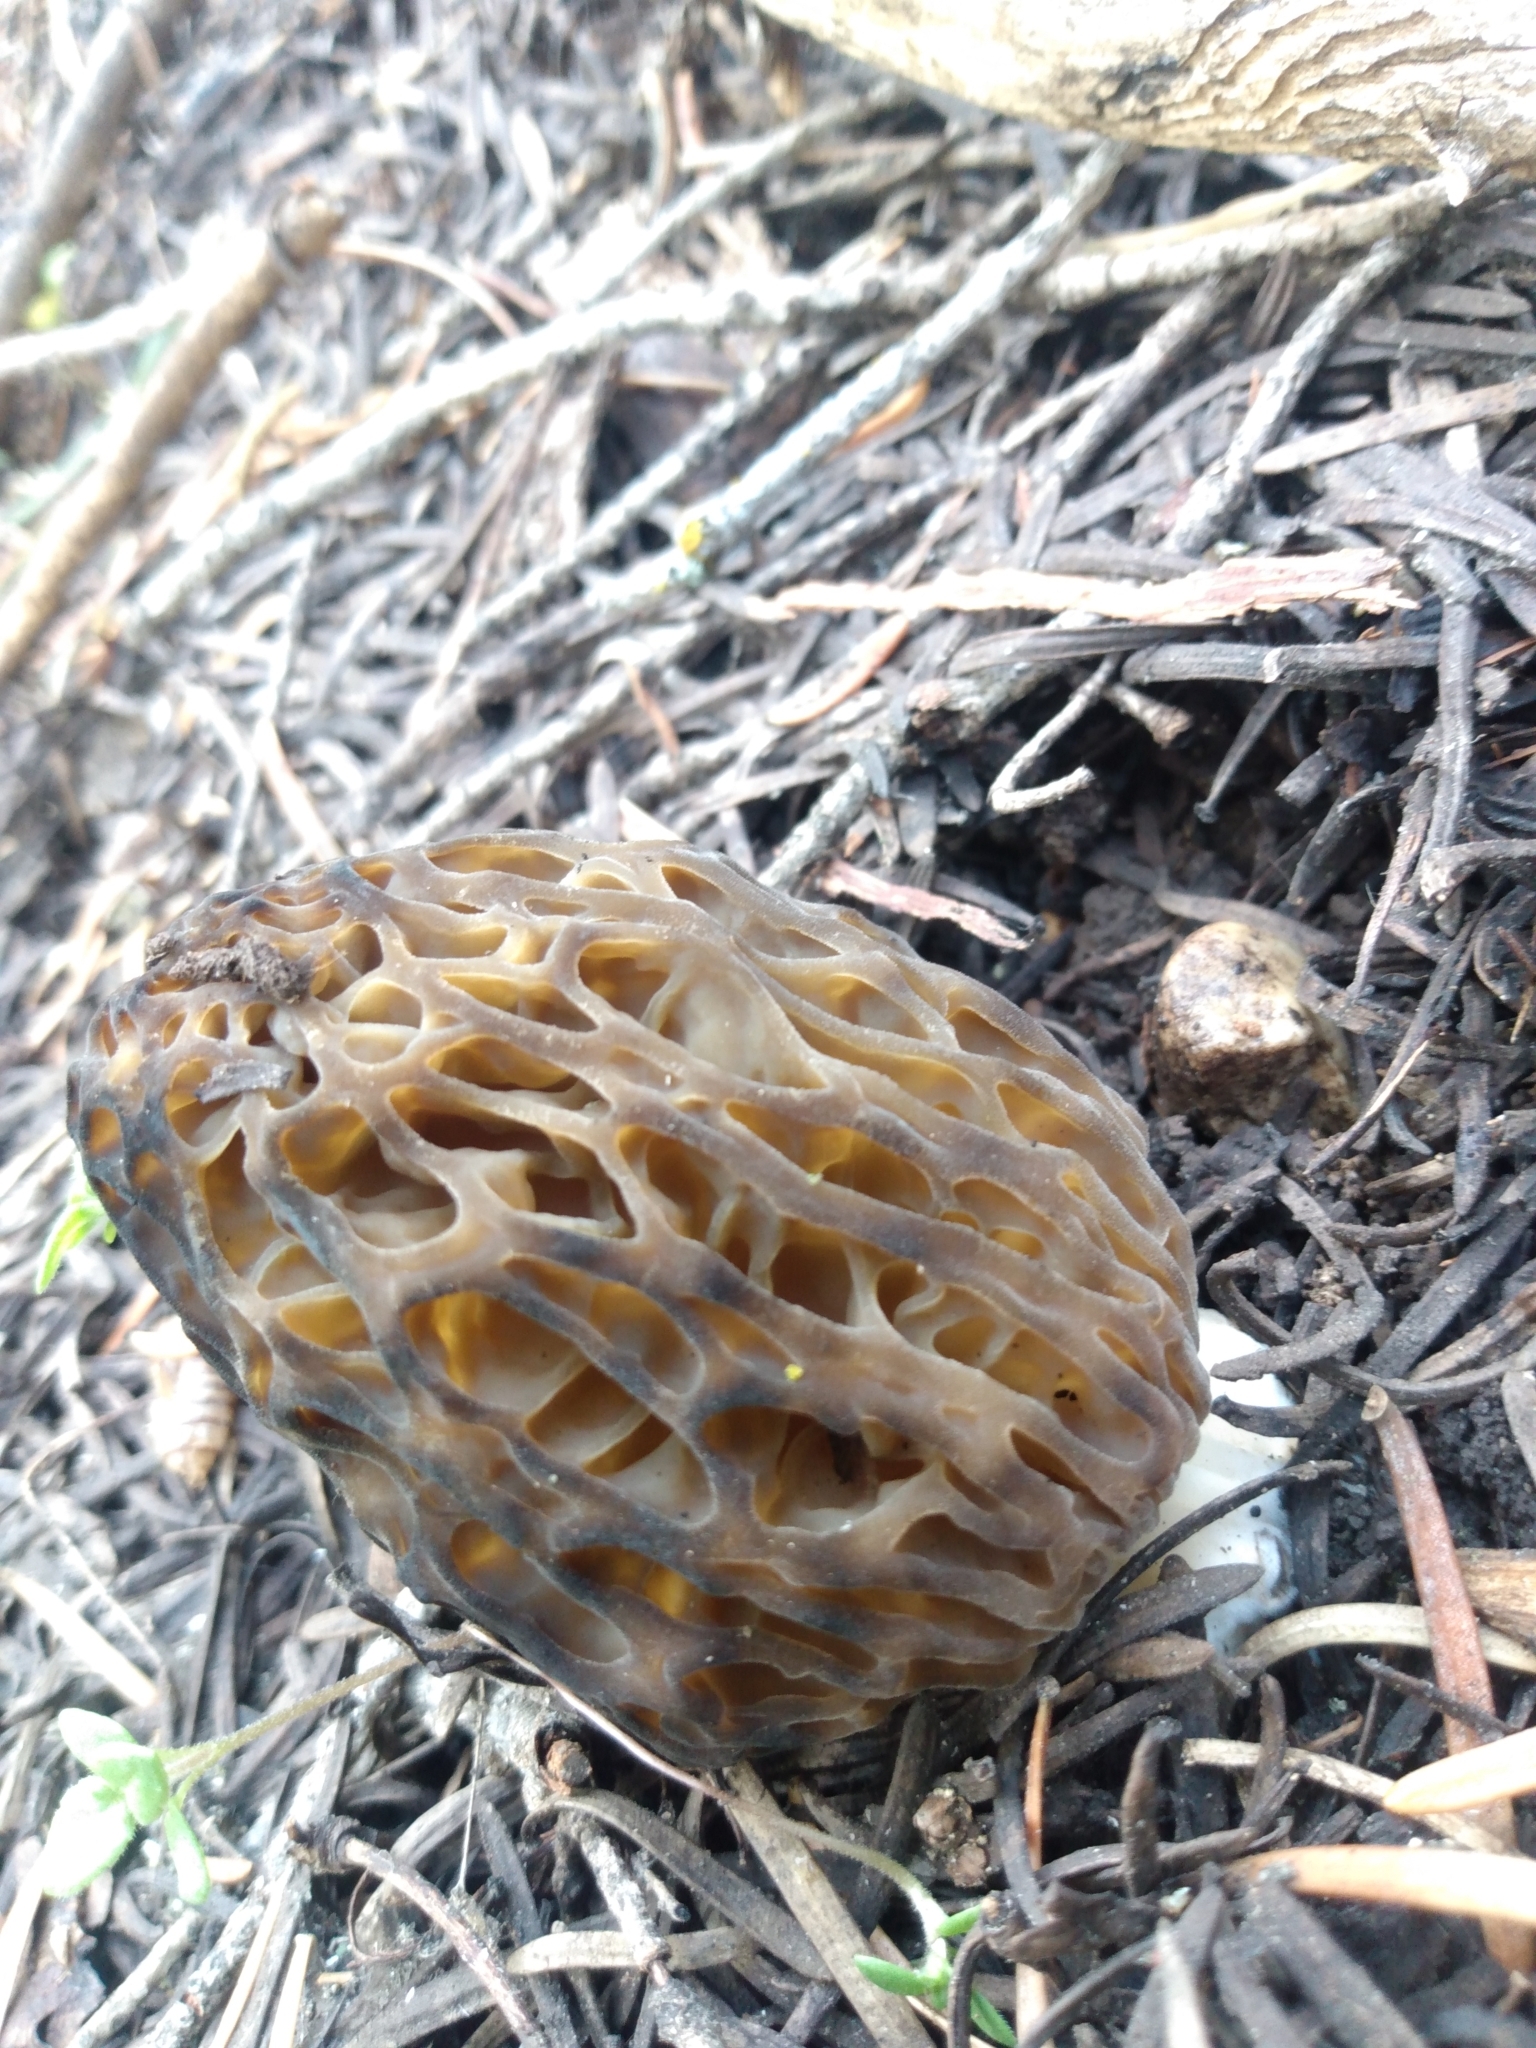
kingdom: Fungi
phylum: Ascomycota
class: Pezizomycetes
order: Pezizales
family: Morchellaceae
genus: Morchella
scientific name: Morchella snyderi
